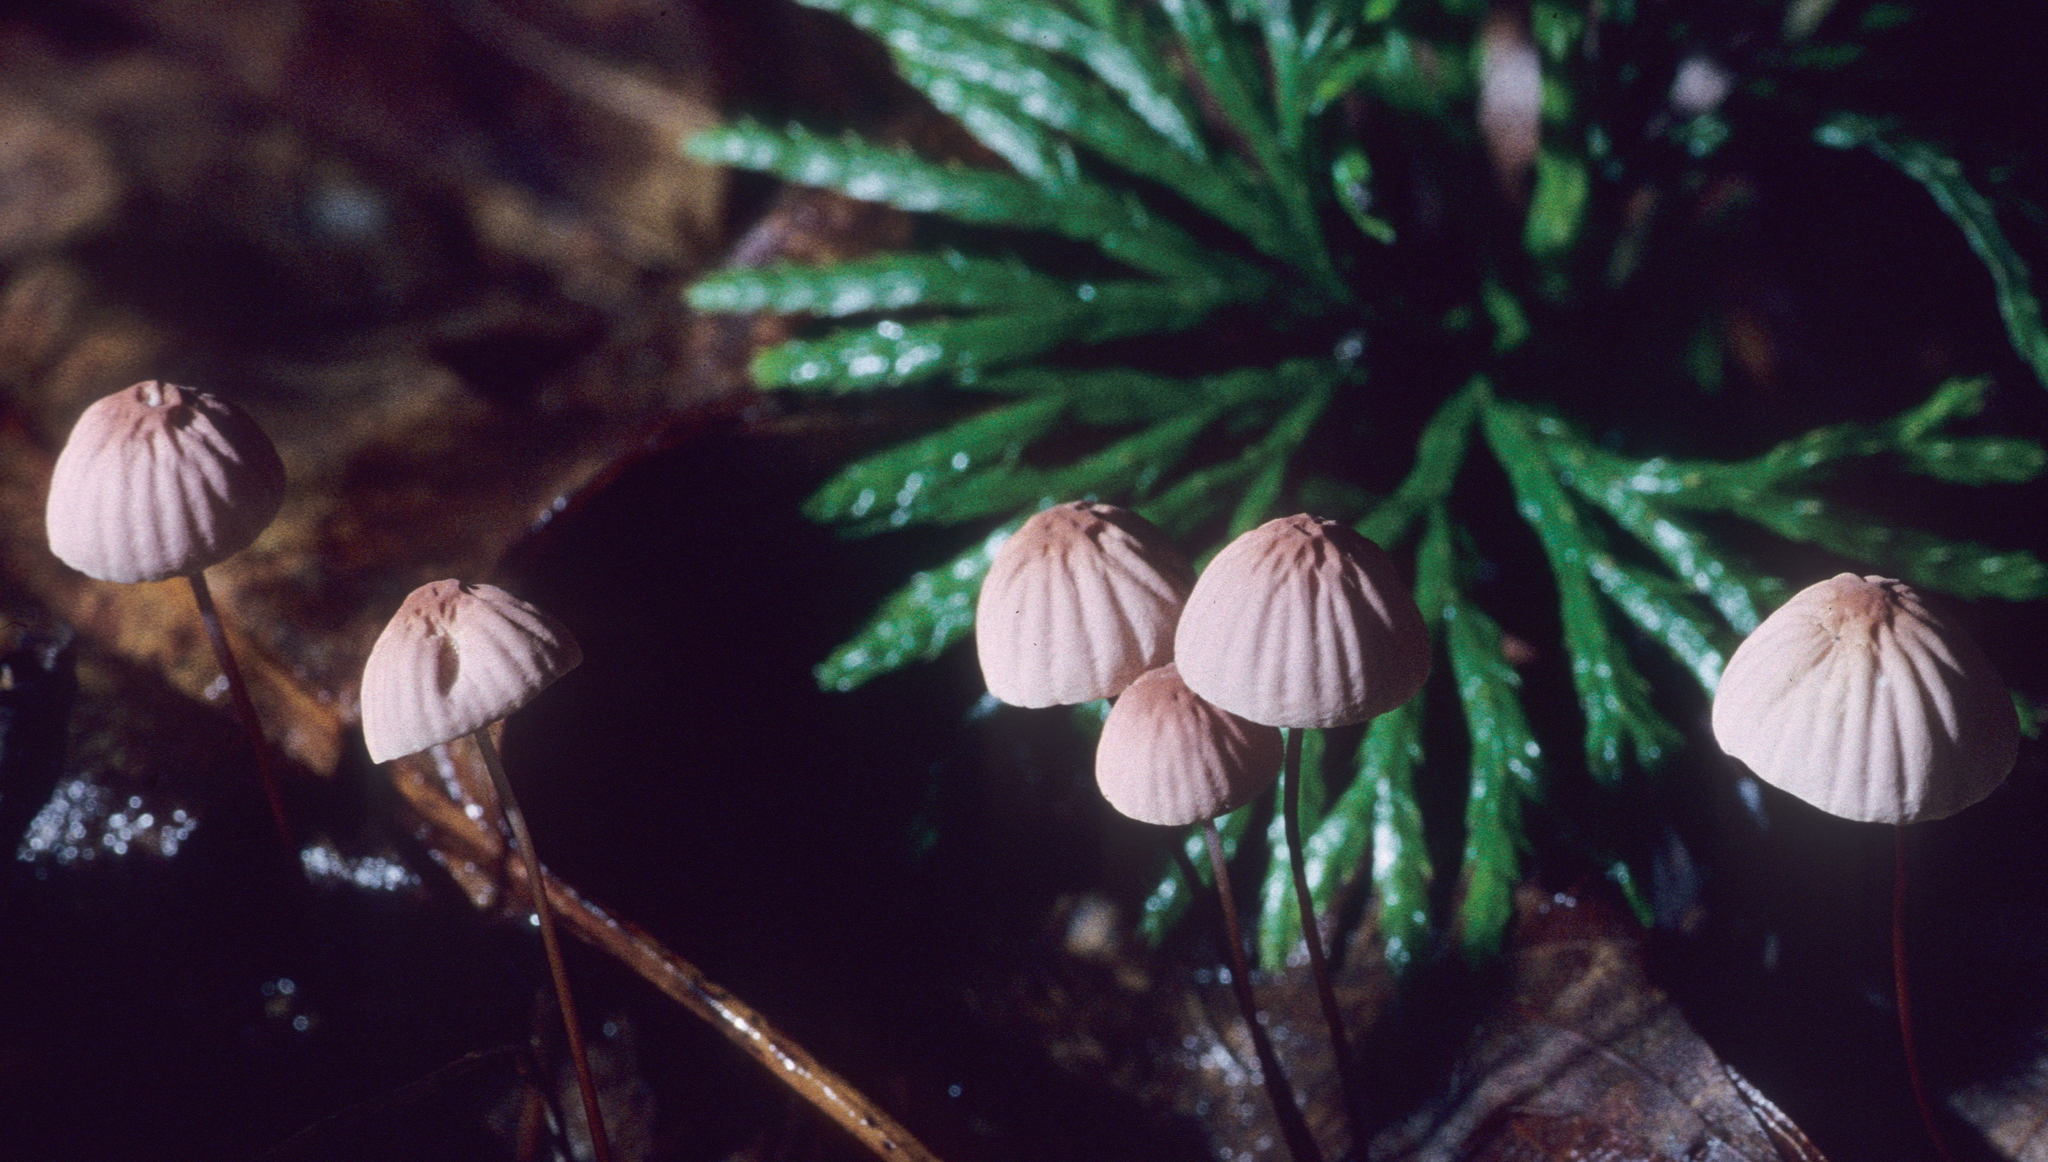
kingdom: Fungi
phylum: Basidiomycota
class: Agaricomycetes
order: Agaricales
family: Marasmiaceae
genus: Marasmius
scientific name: Marasmius pulcherripes
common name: Rosy parachute
